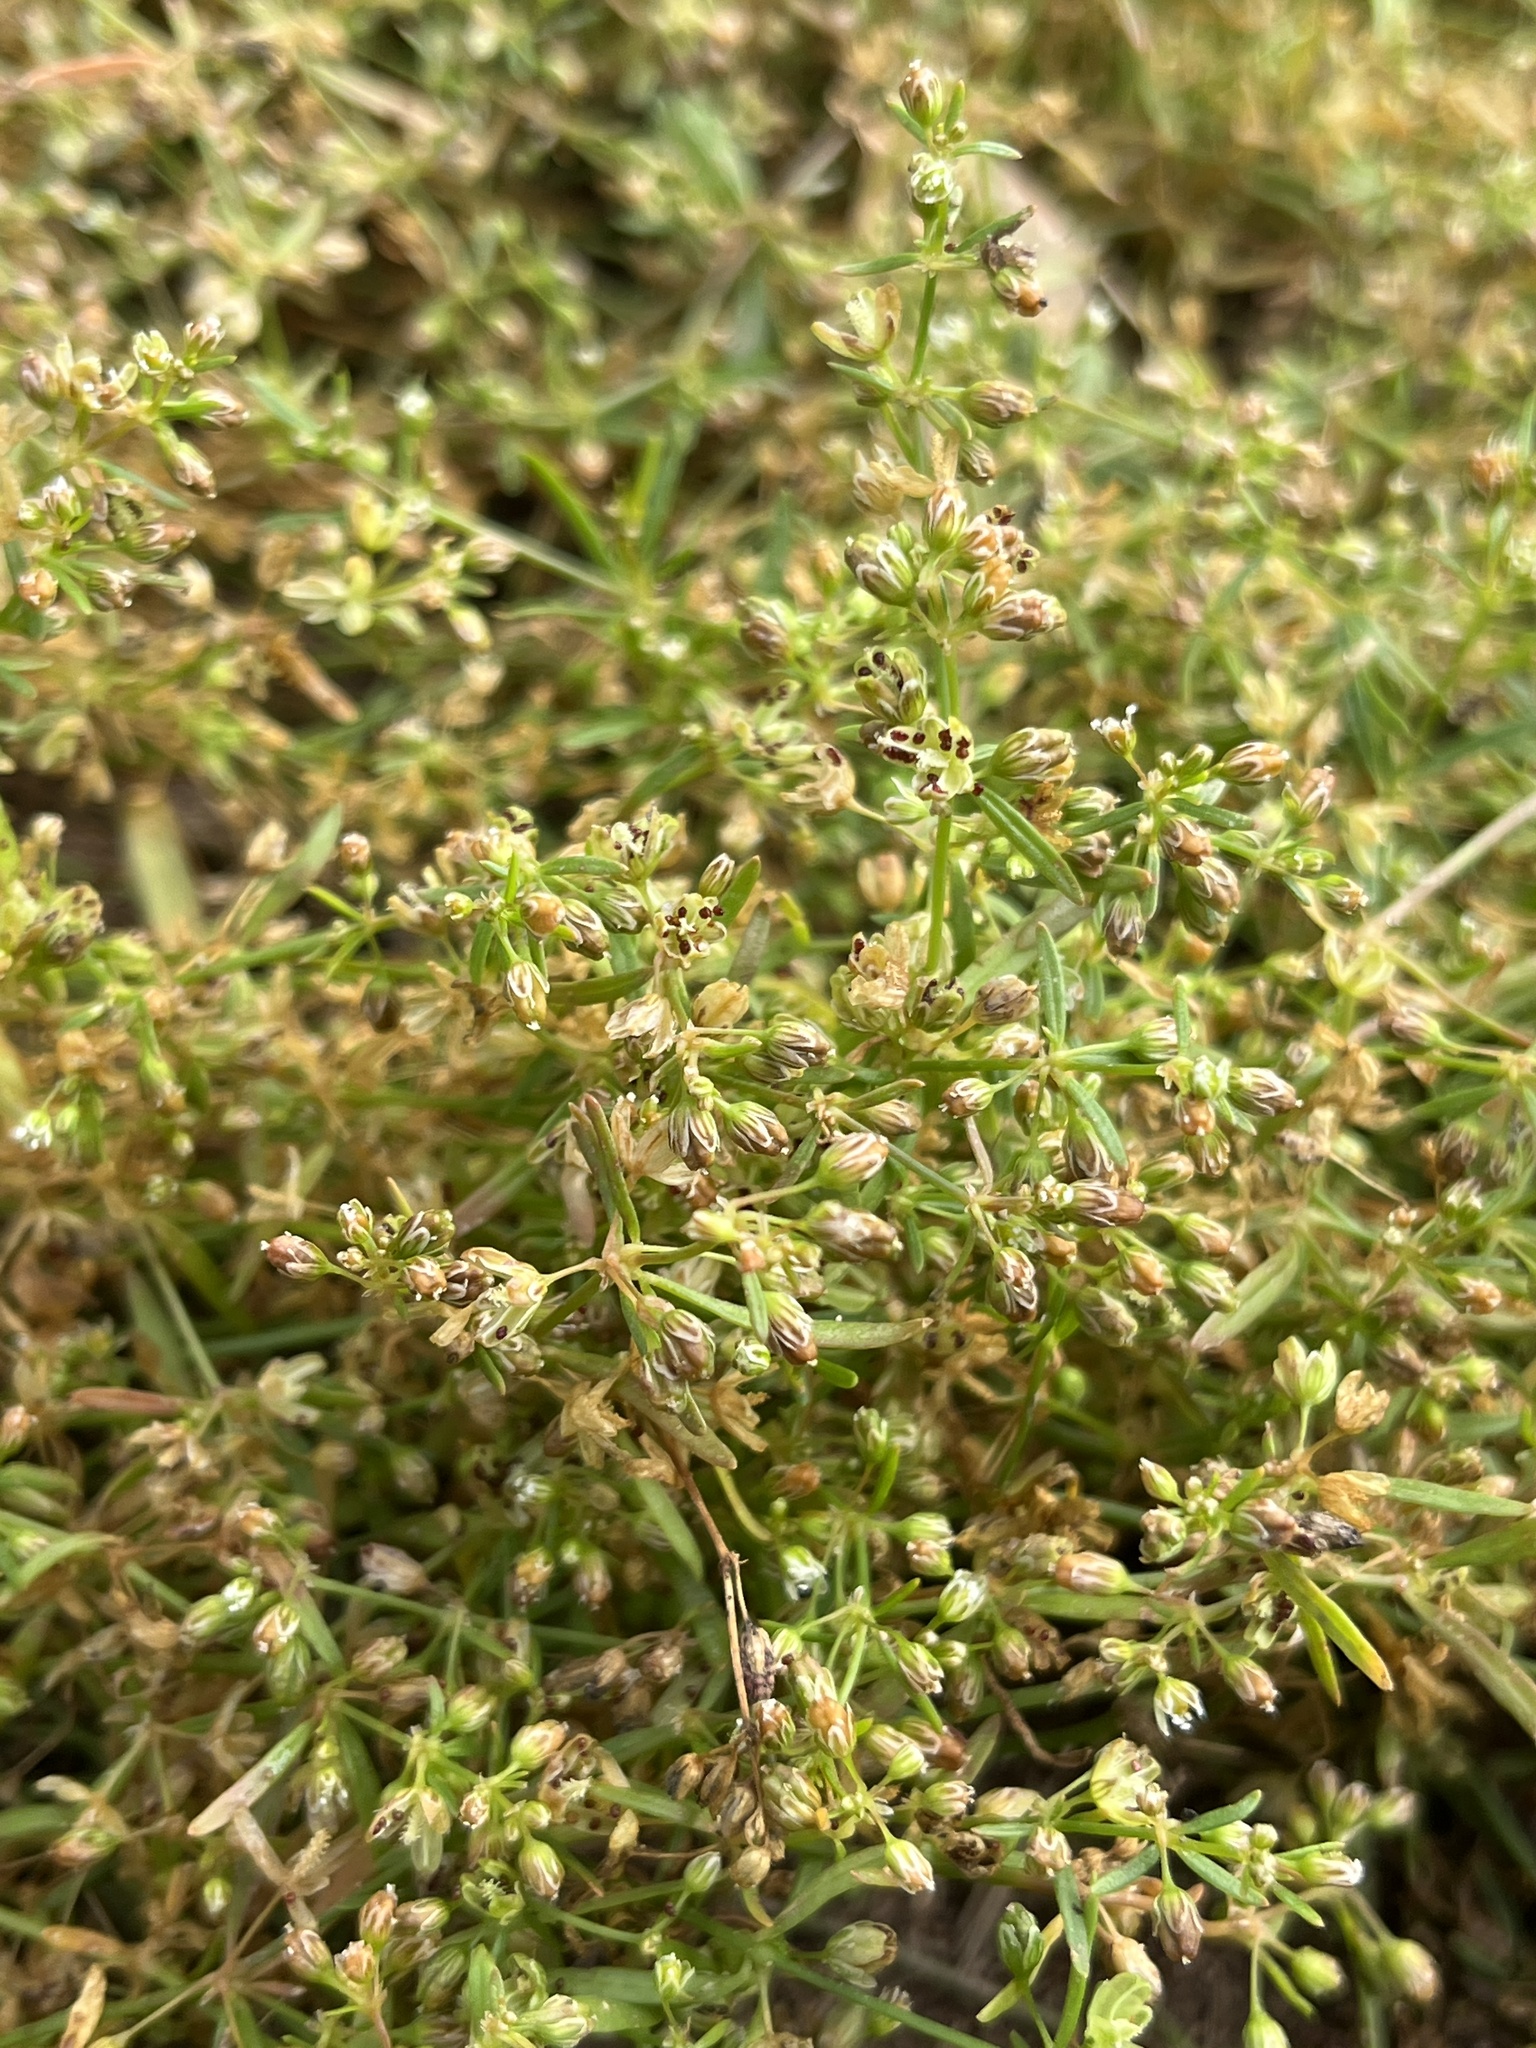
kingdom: Plantae
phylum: Tracheophyta
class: Magnoliopsida
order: Caryophyllales
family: Molluginaceae
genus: Mollugo
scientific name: Mollugo verticillata
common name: Green carpetweed
